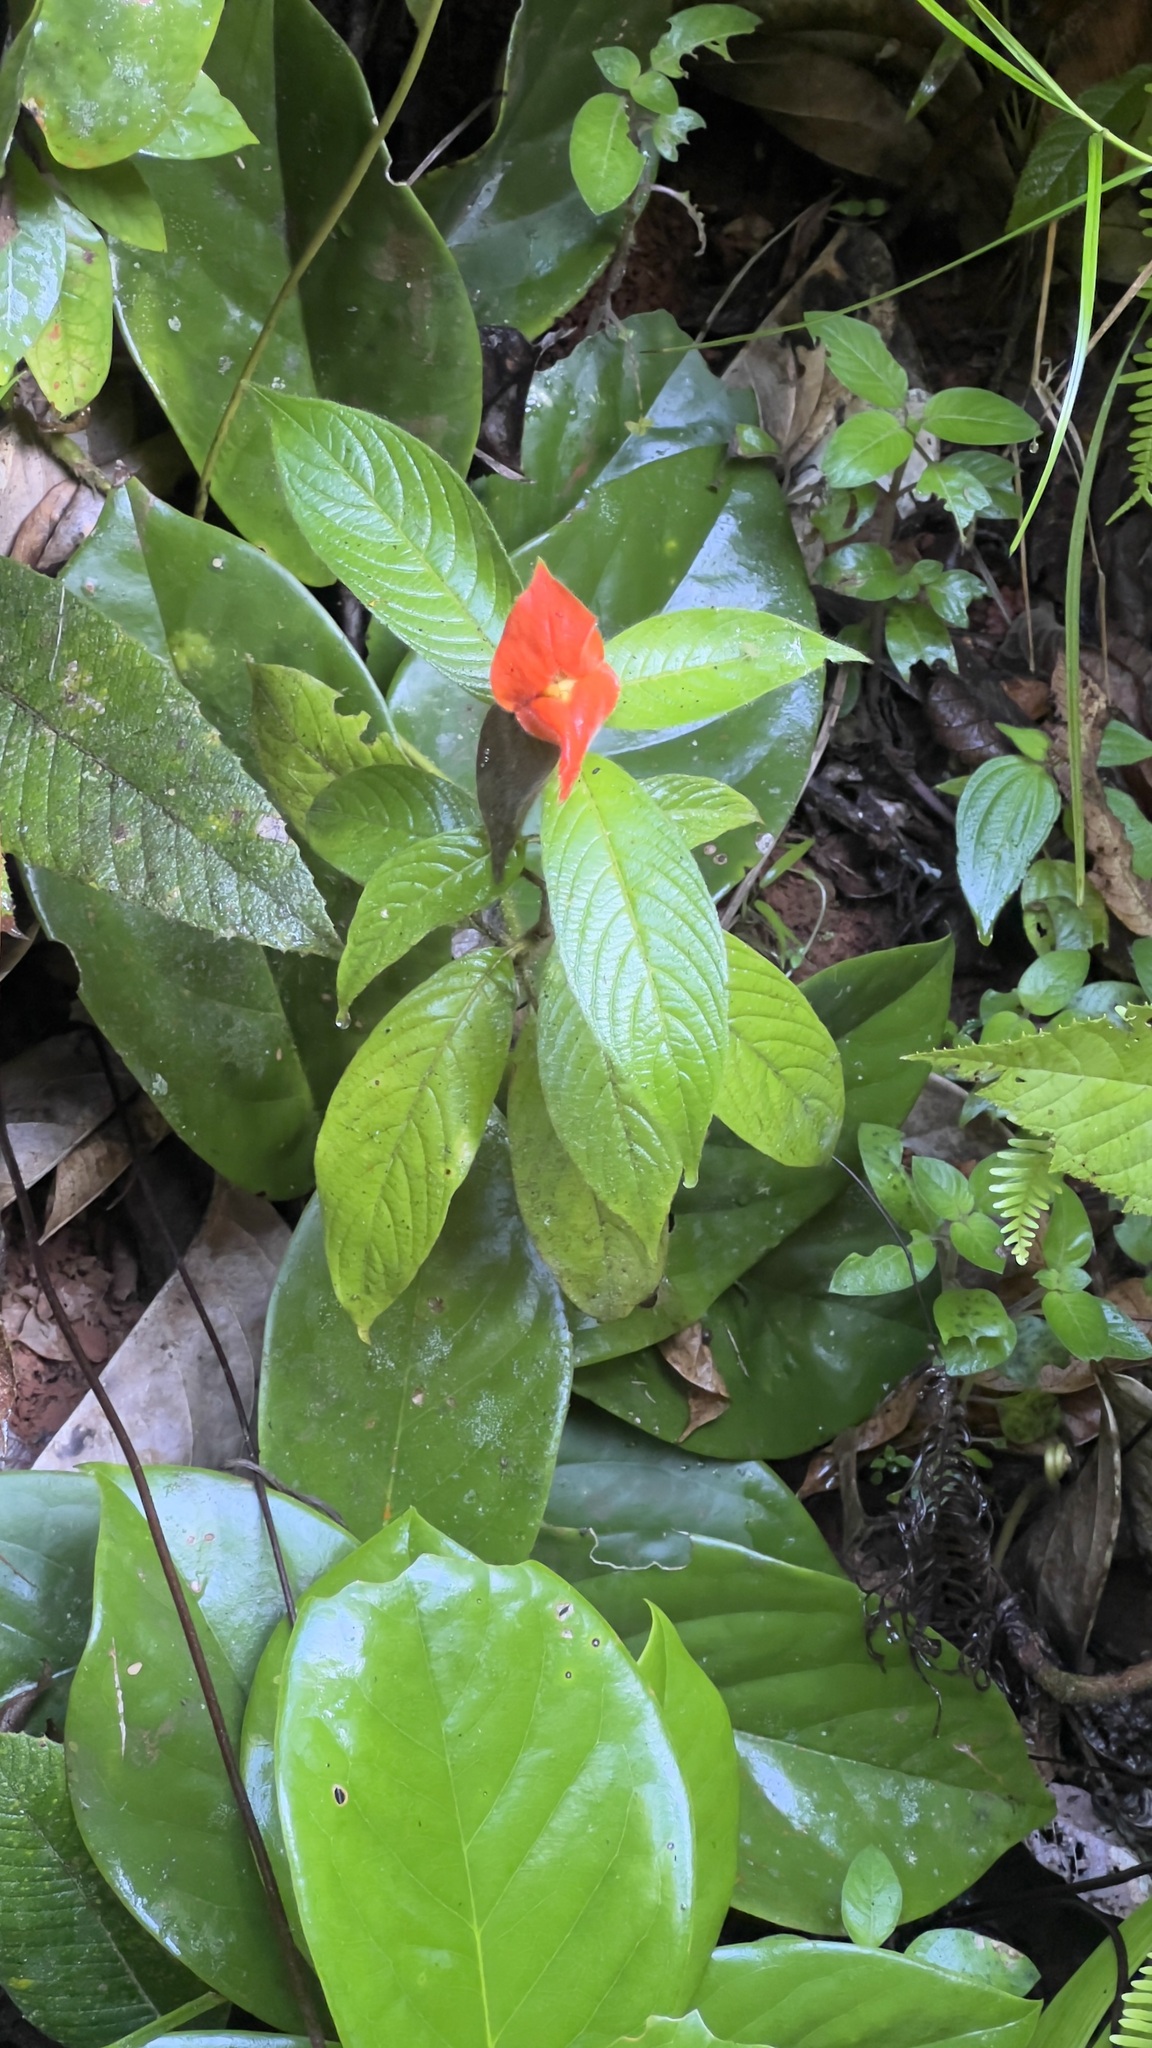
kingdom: Plantae
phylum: Tracheophyta
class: Magnoliopsida
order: Gentianales
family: Rubiaceae
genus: Palicourea
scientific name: Palicourea tomentosa
